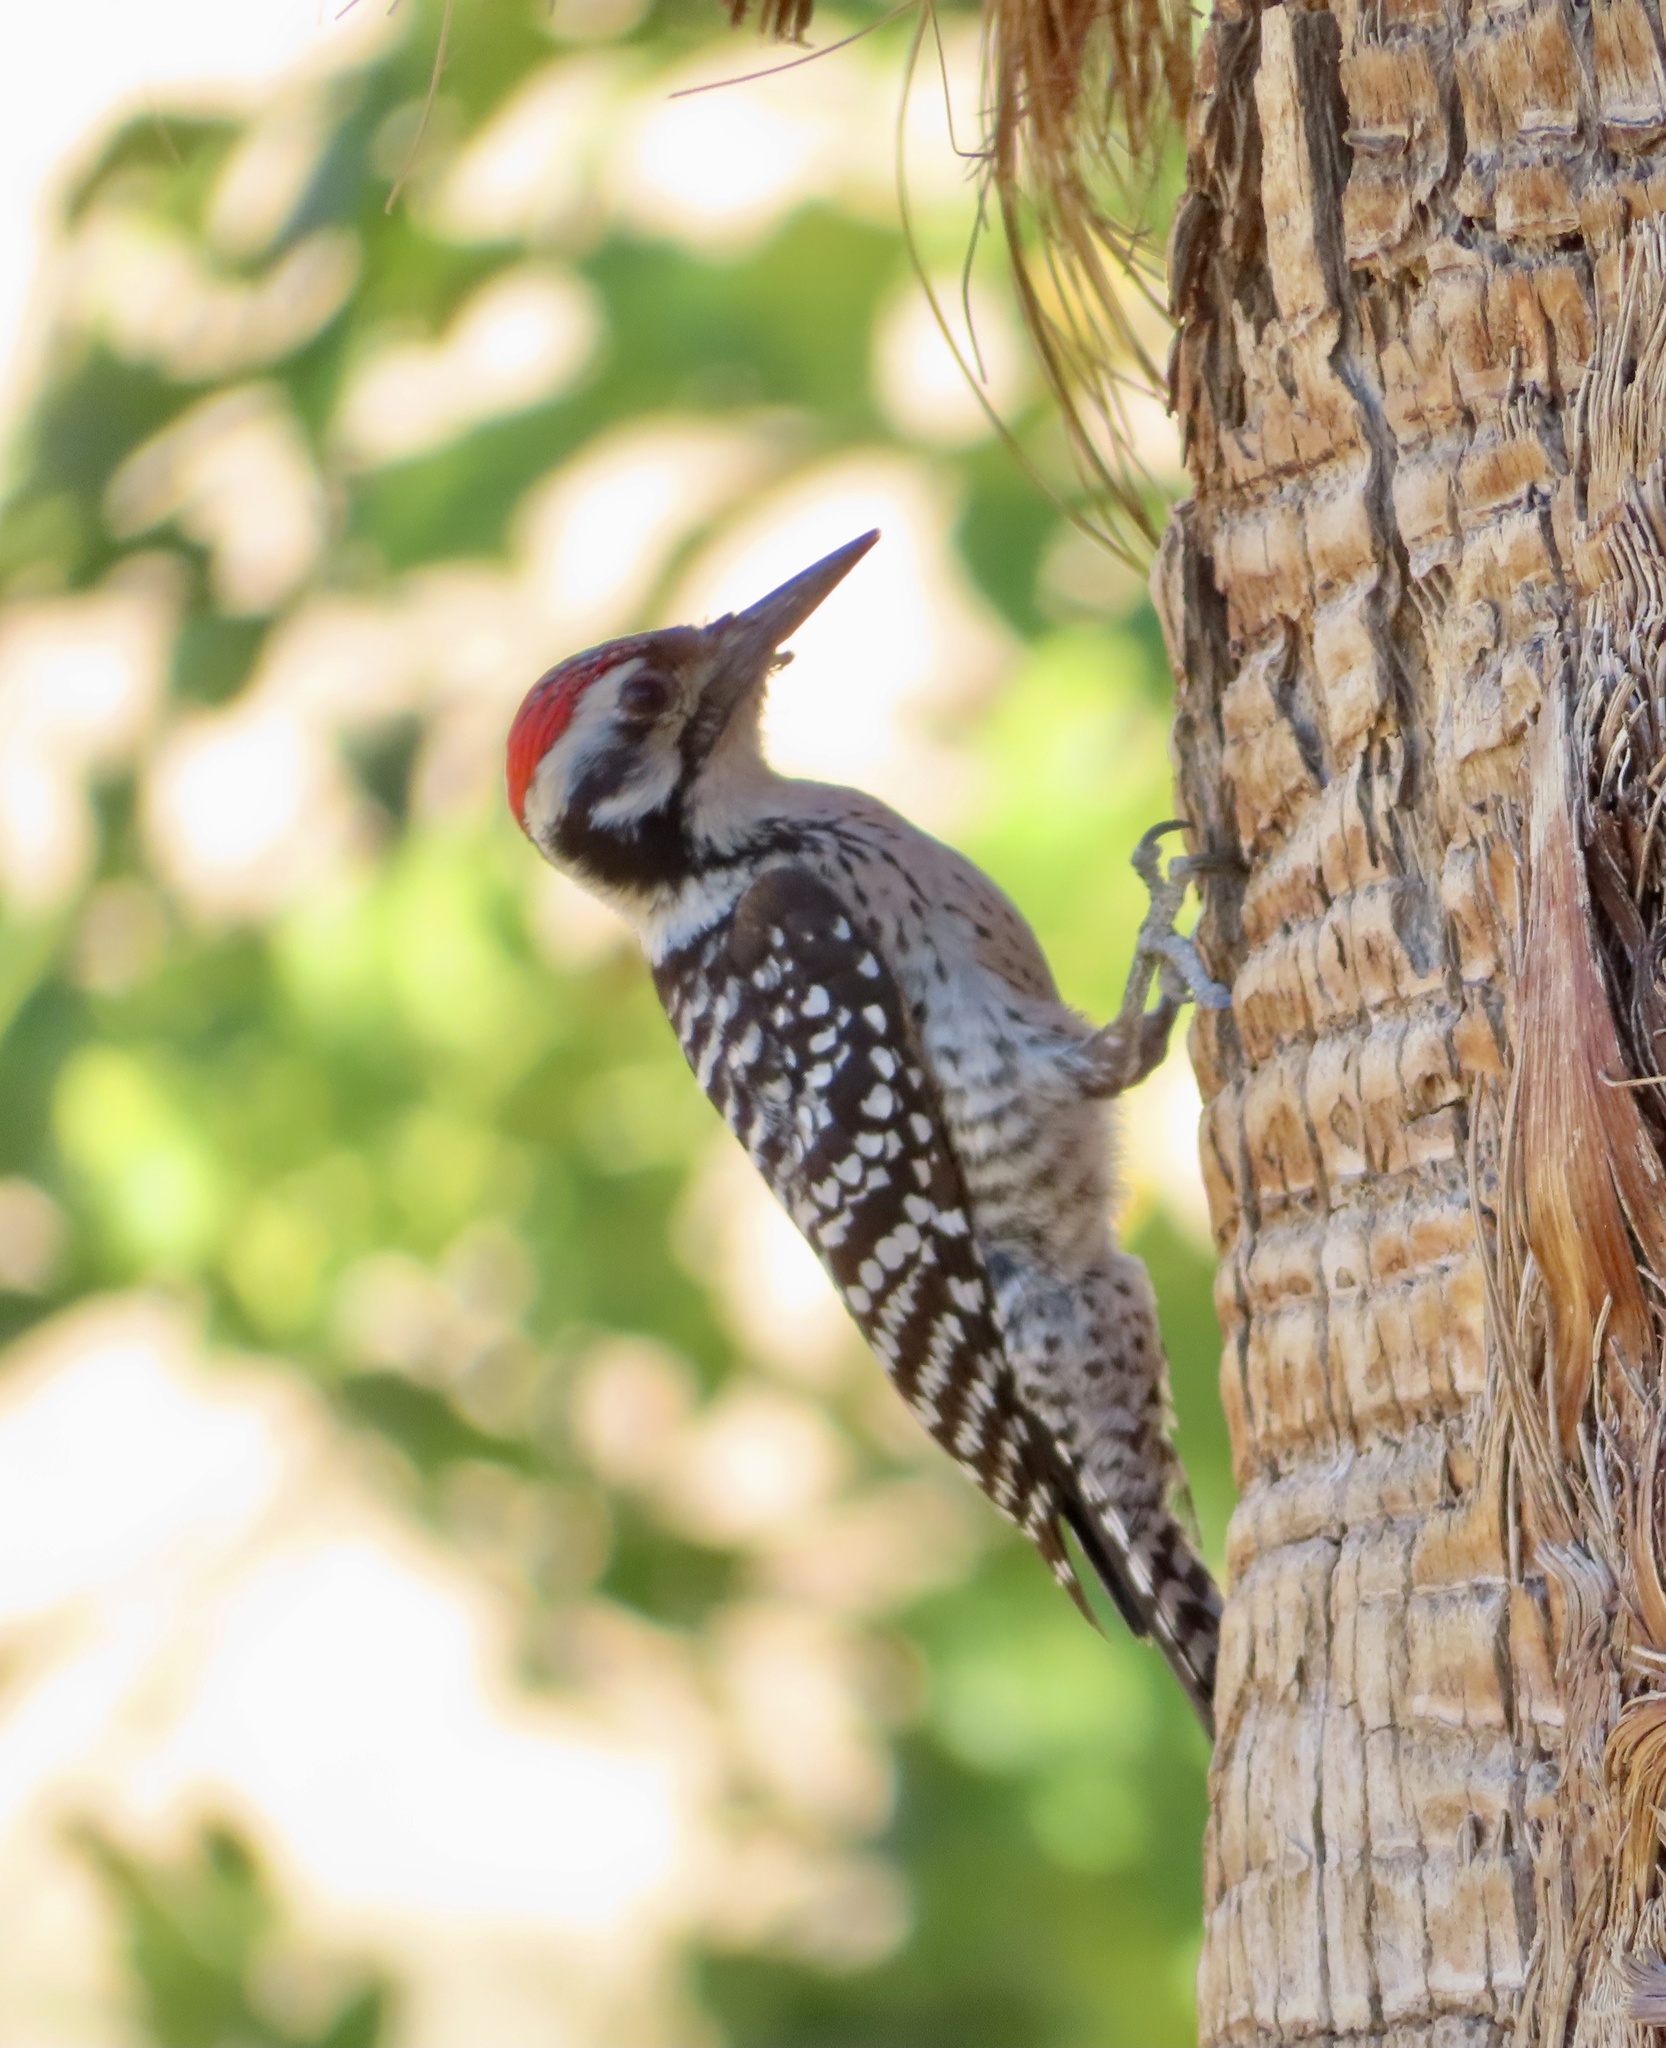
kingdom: Animalia
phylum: Chordata
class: Aves
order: Piciformes
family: Picidae
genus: Dryobates
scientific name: Dryobates scalaris
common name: Ladder-backed woodpecker
